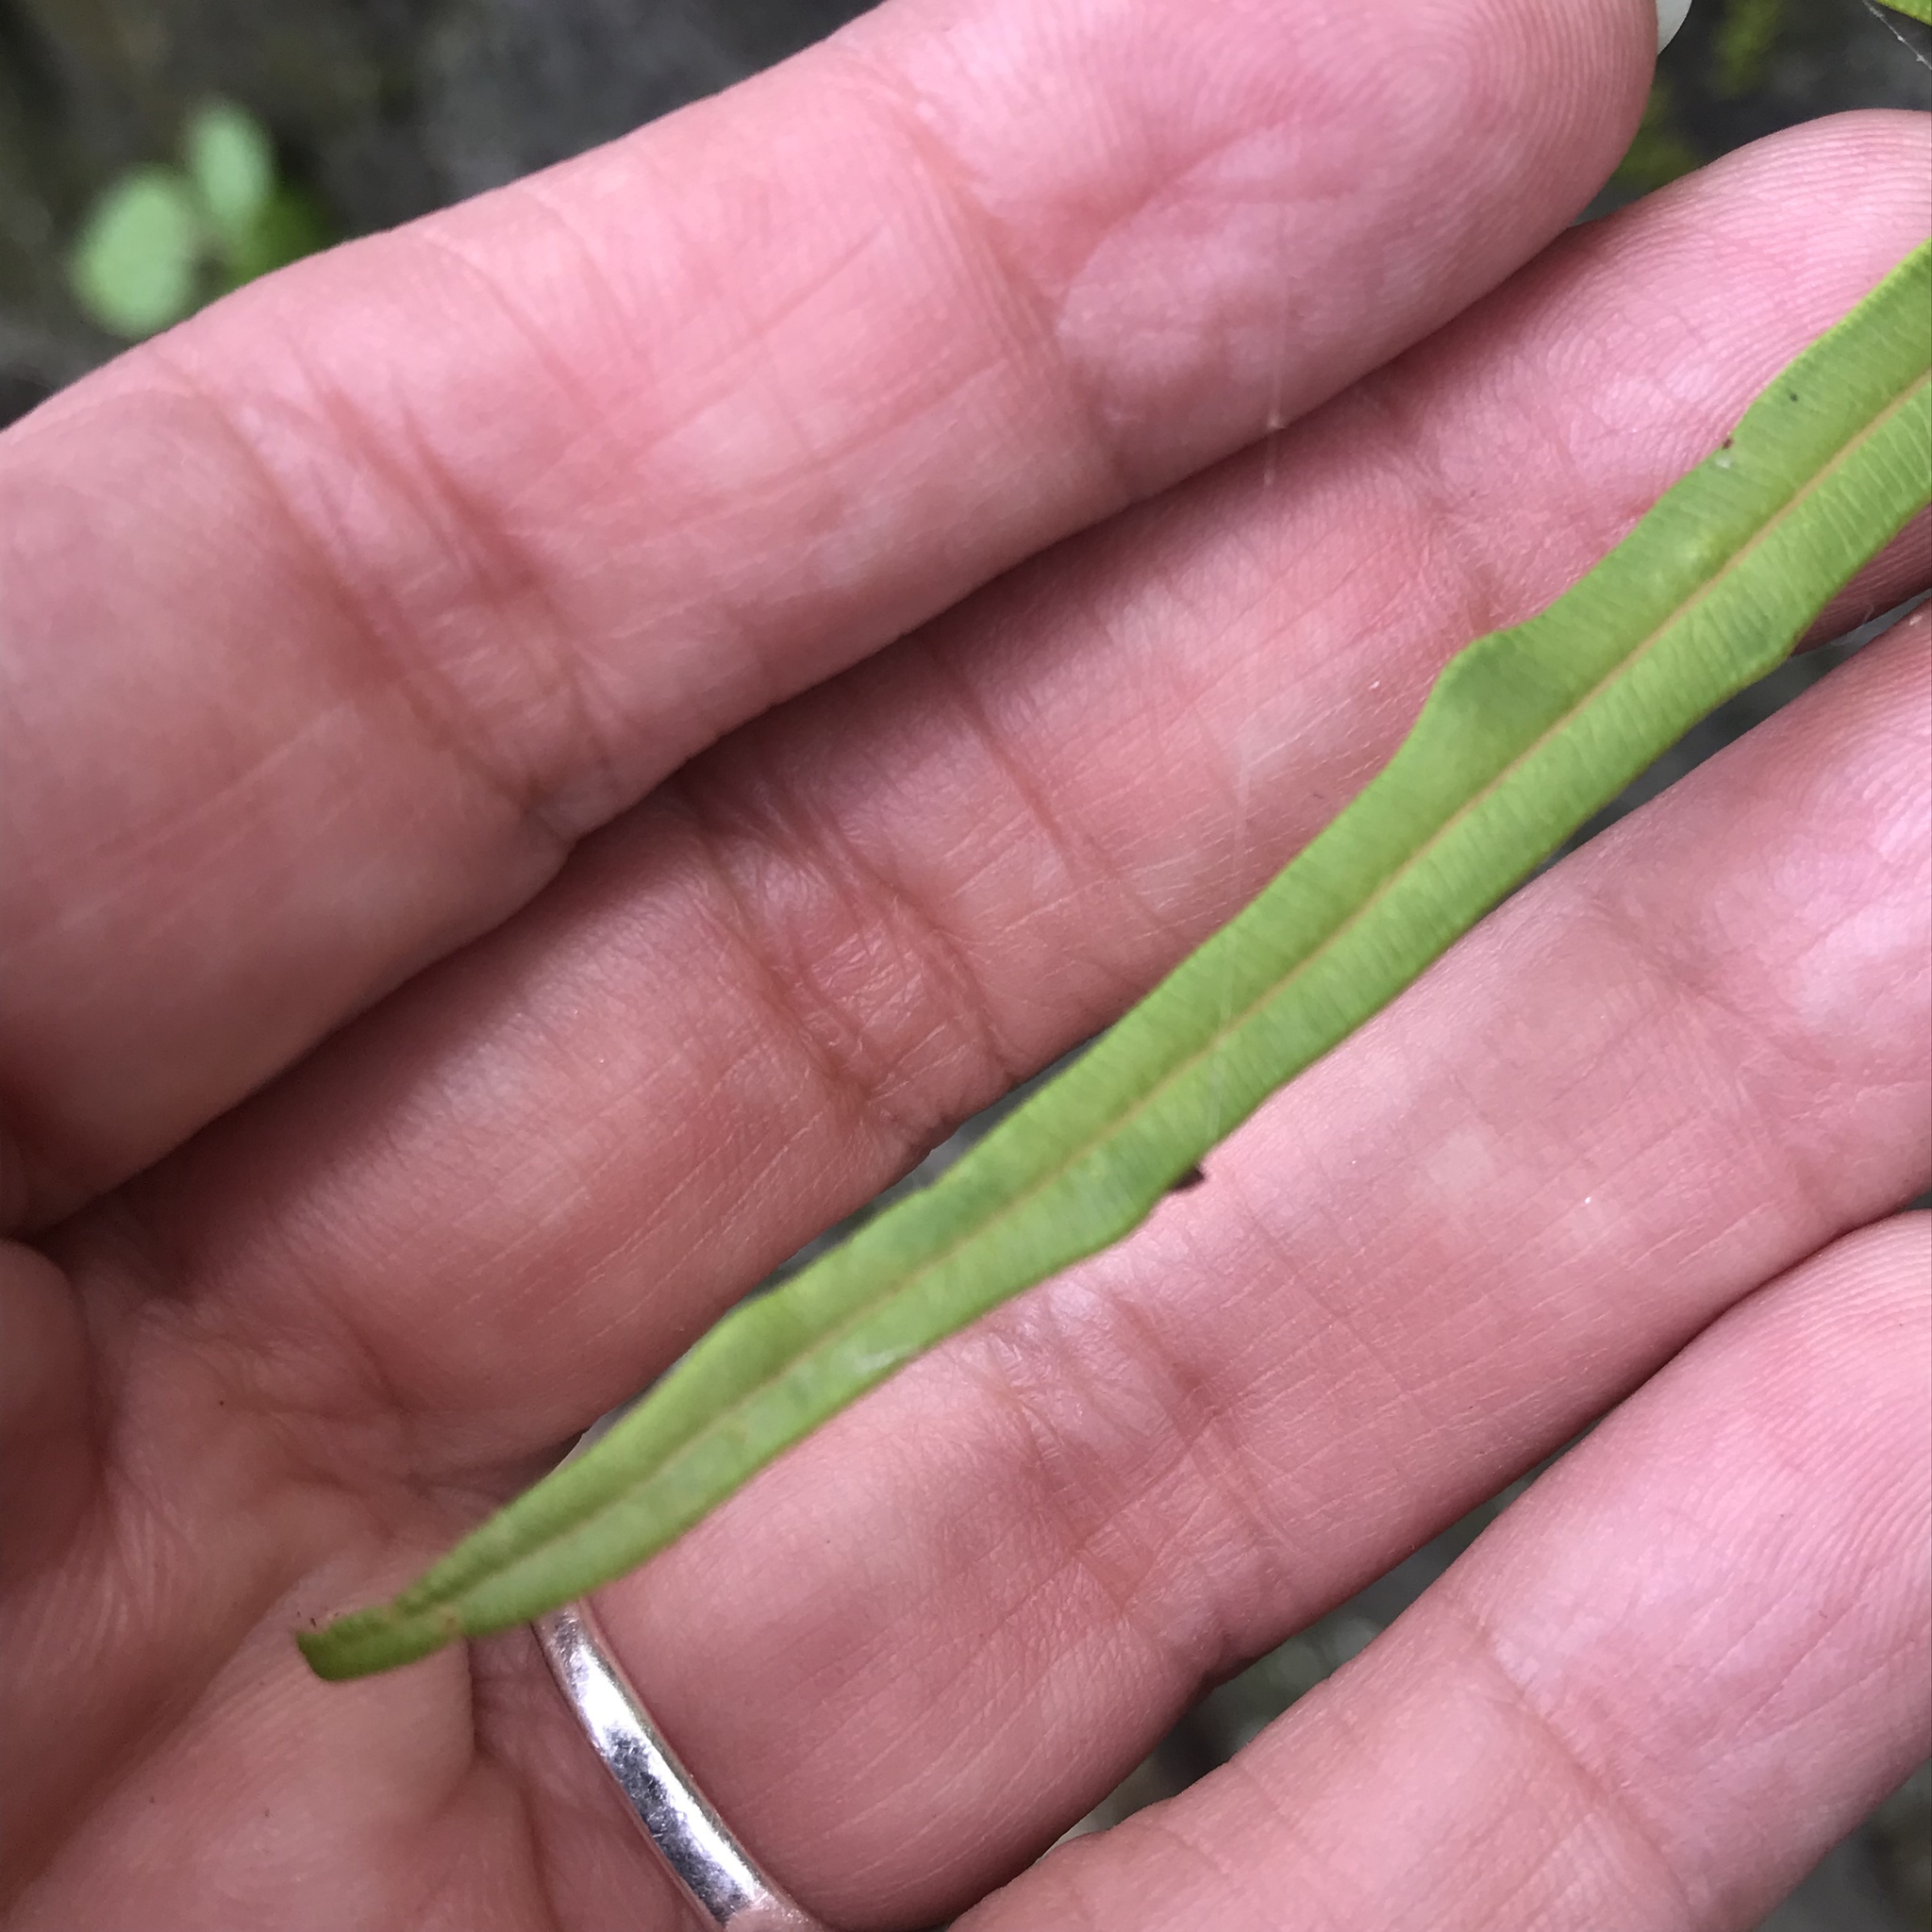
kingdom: Plantae
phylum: Tracheophyta
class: Polypodiopsida
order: Polypodiales
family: Pteridaceae
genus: Pteris
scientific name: Pteris vittata
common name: Ladder brake
